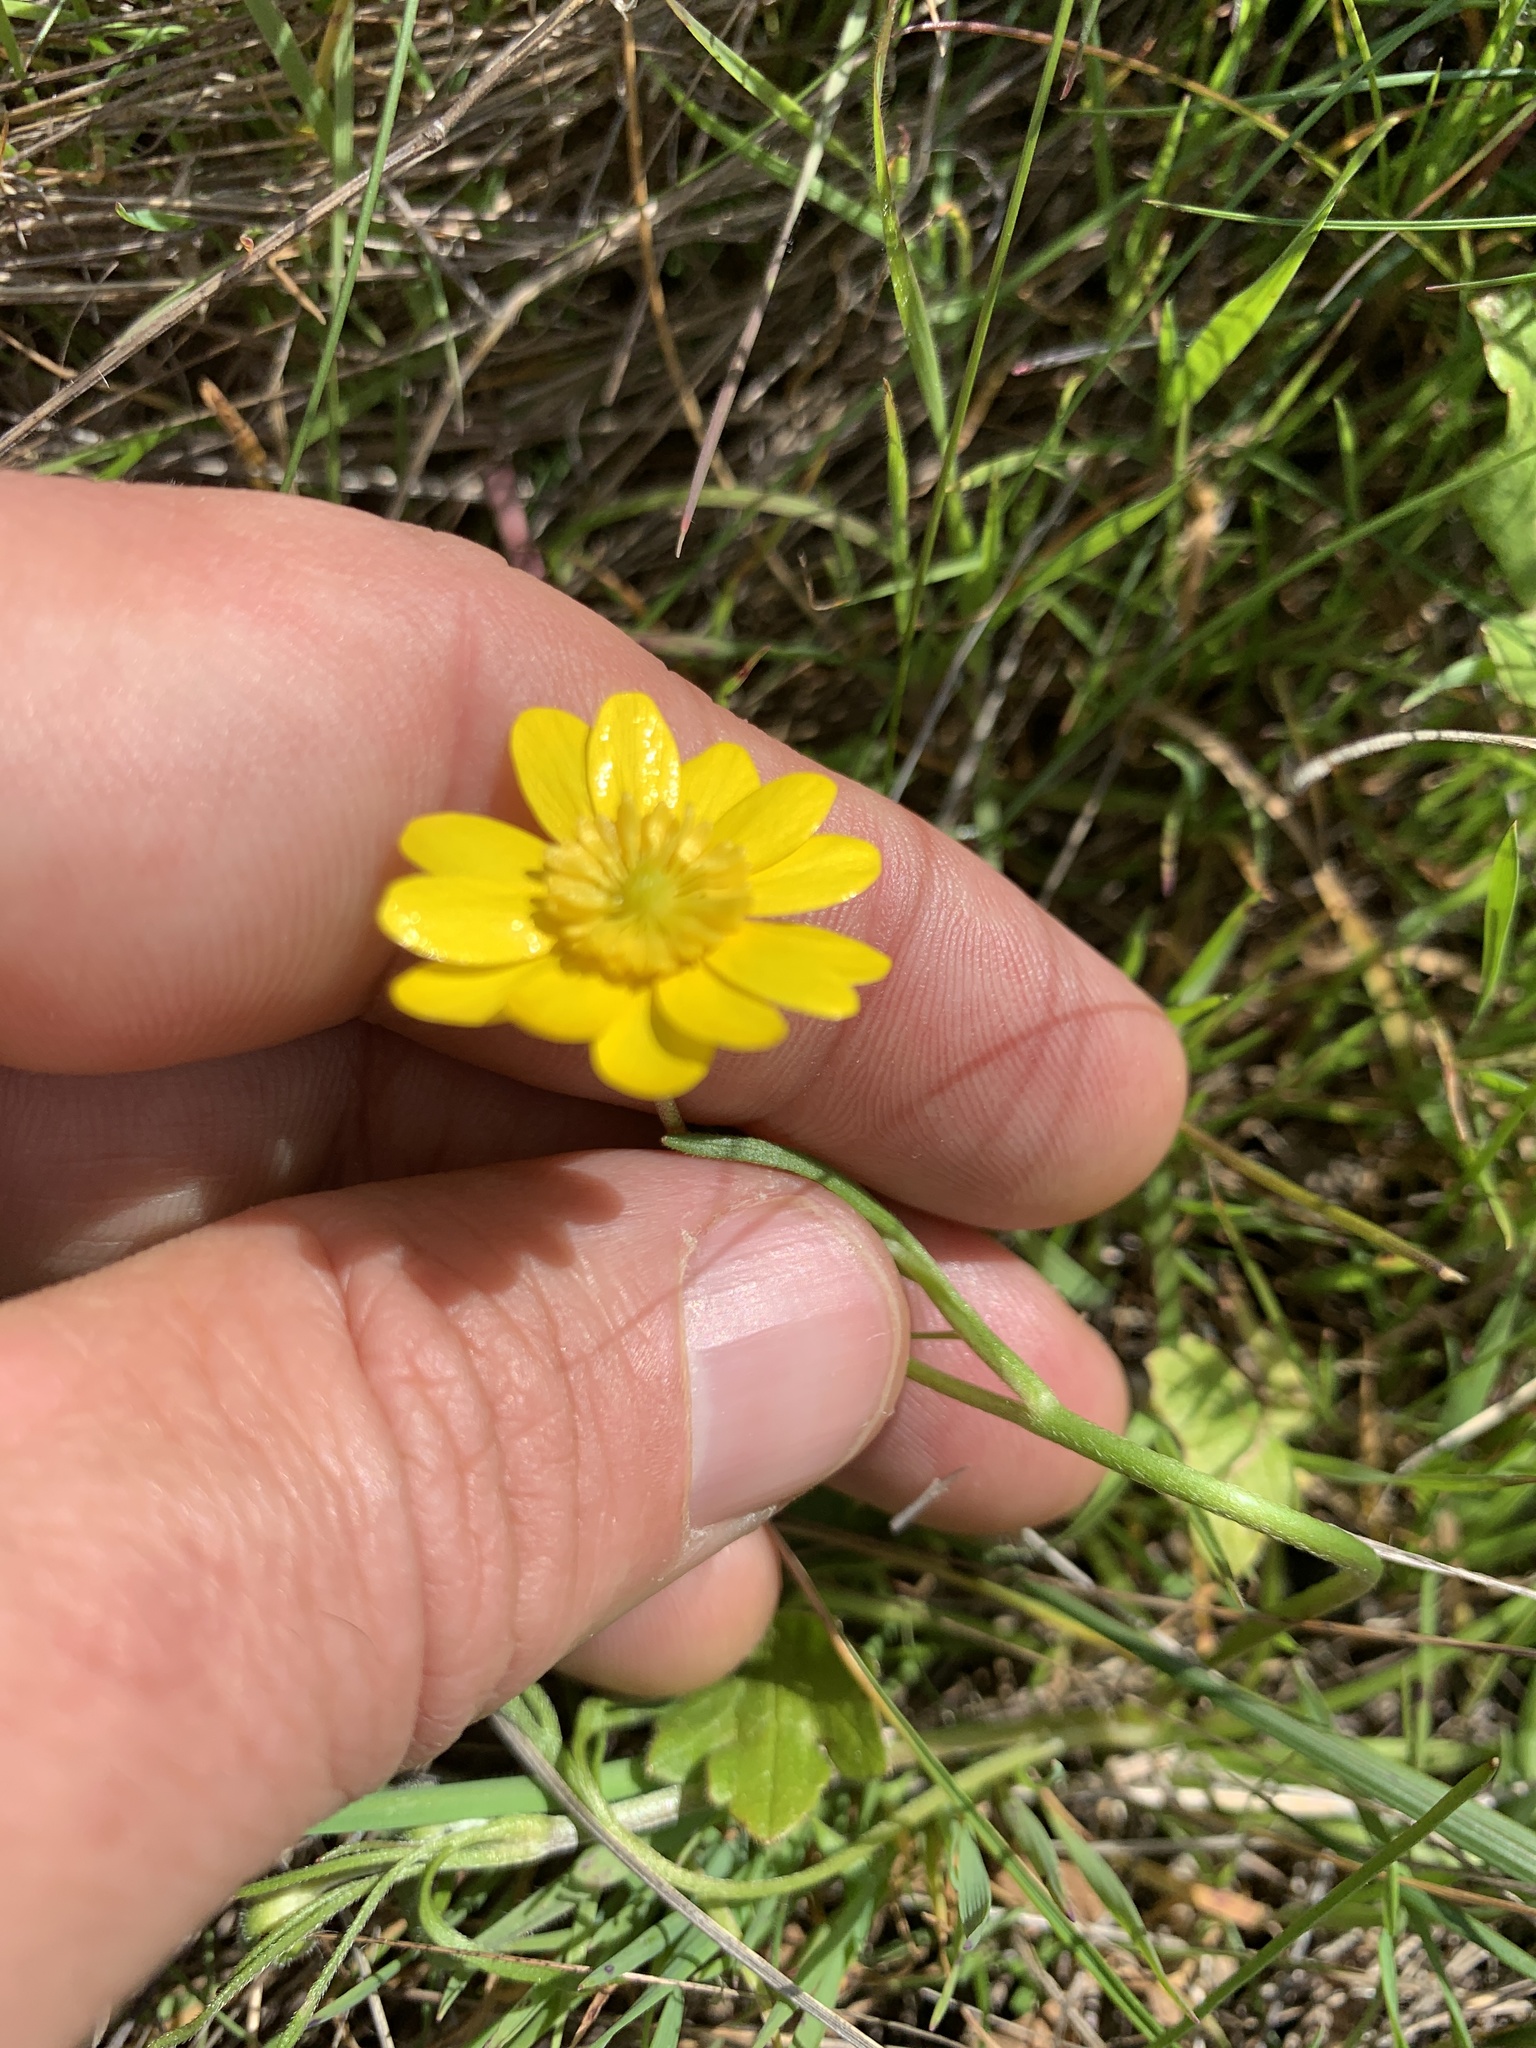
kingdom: Plantae
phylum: Tracheophyta
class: Magnoliopsida
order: Ranunculales
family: Ranunculaceae
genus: Ranunculus
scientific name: Ranunculus californicus
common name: California buttercup
